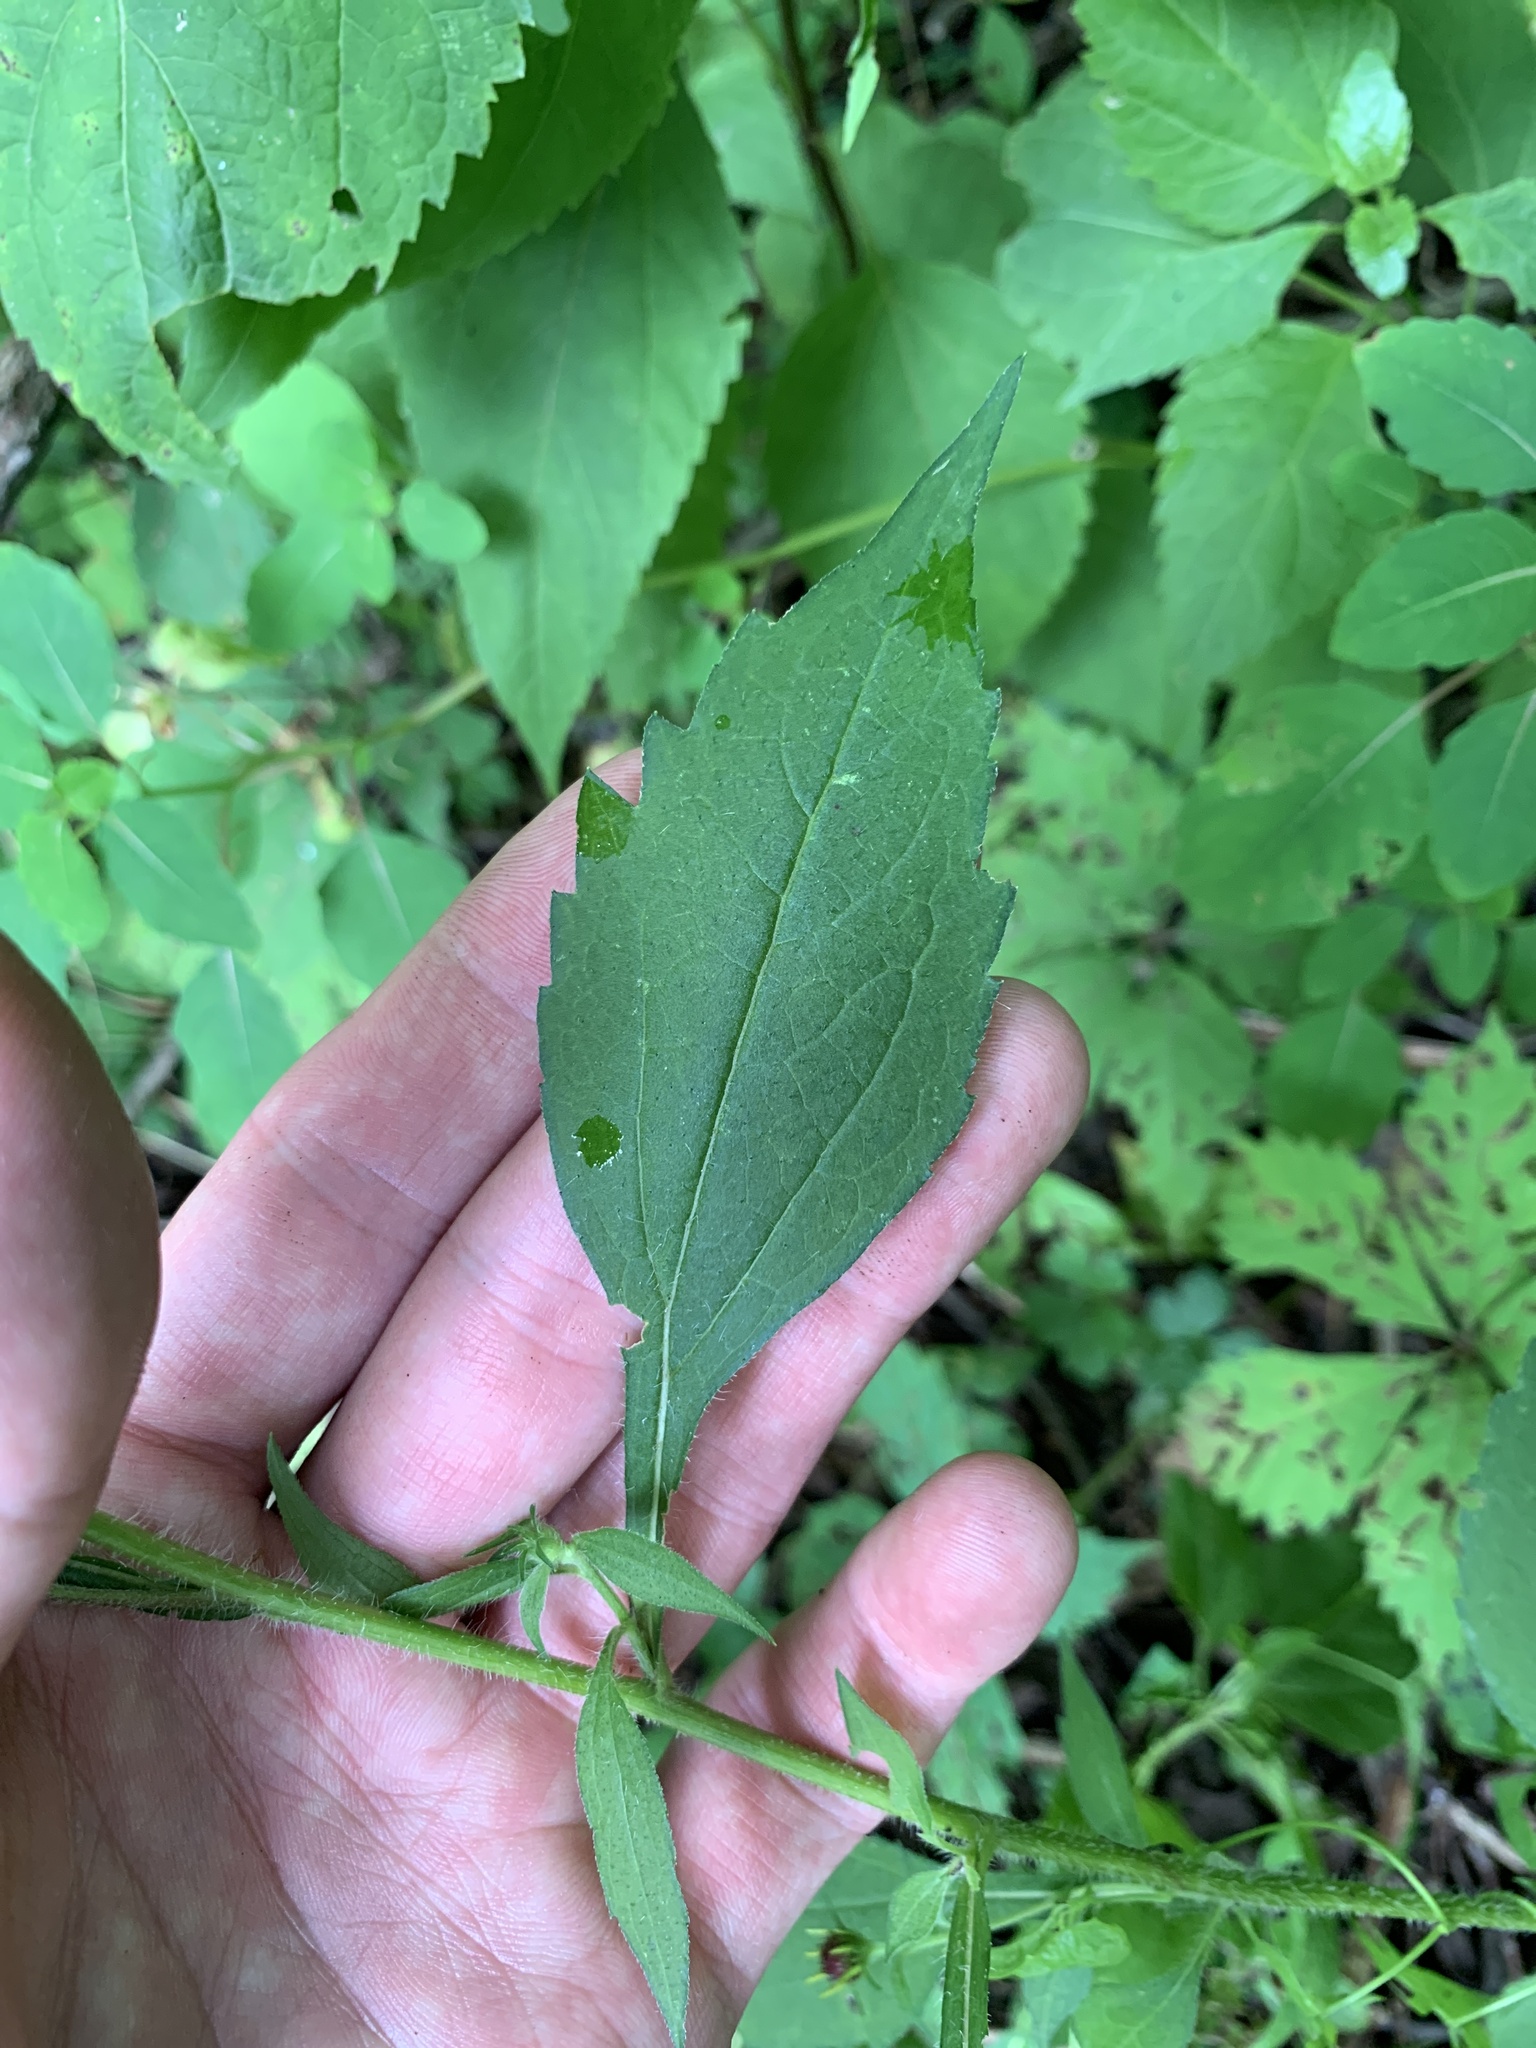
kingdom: Plantae
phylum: Tracheophyta
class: Magnoliopsida
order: Asterales
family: Asteraceae
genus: Rudbeckia
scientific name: Rudbeckia triloba
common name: Thin-leaved coneflower
